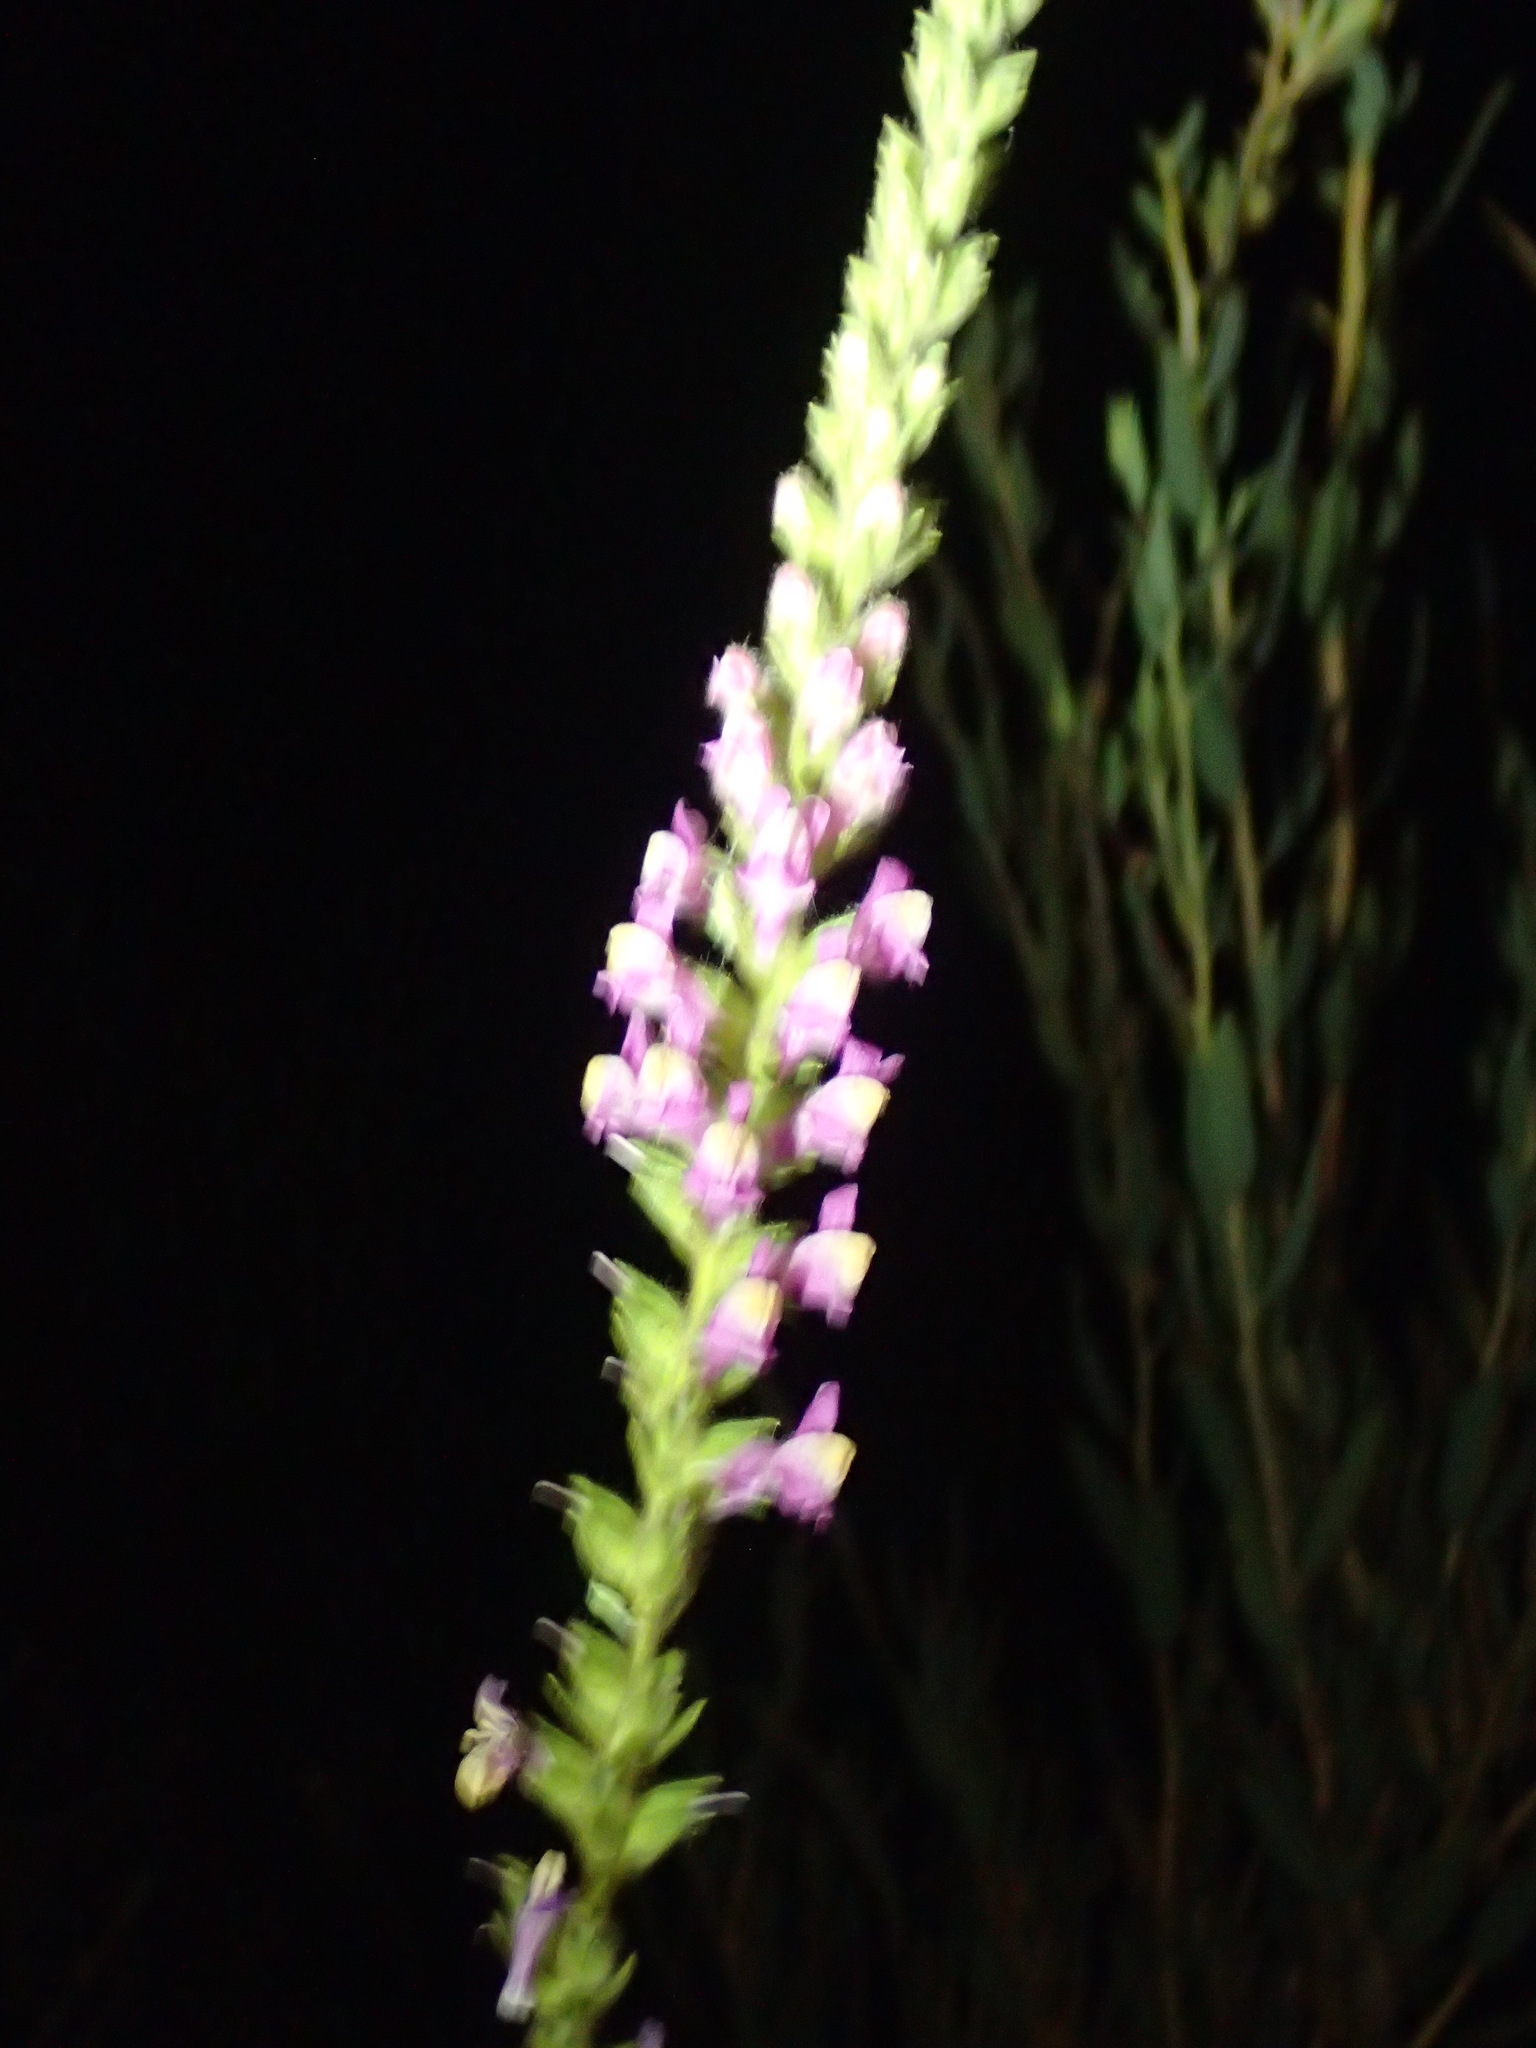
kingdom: Plantae
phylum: Tracheophyta
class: Magnoliopsida
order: Lamiales
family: Plantaginaceae
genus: Sairocarpus
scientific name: Sairocarpus multiflorus
